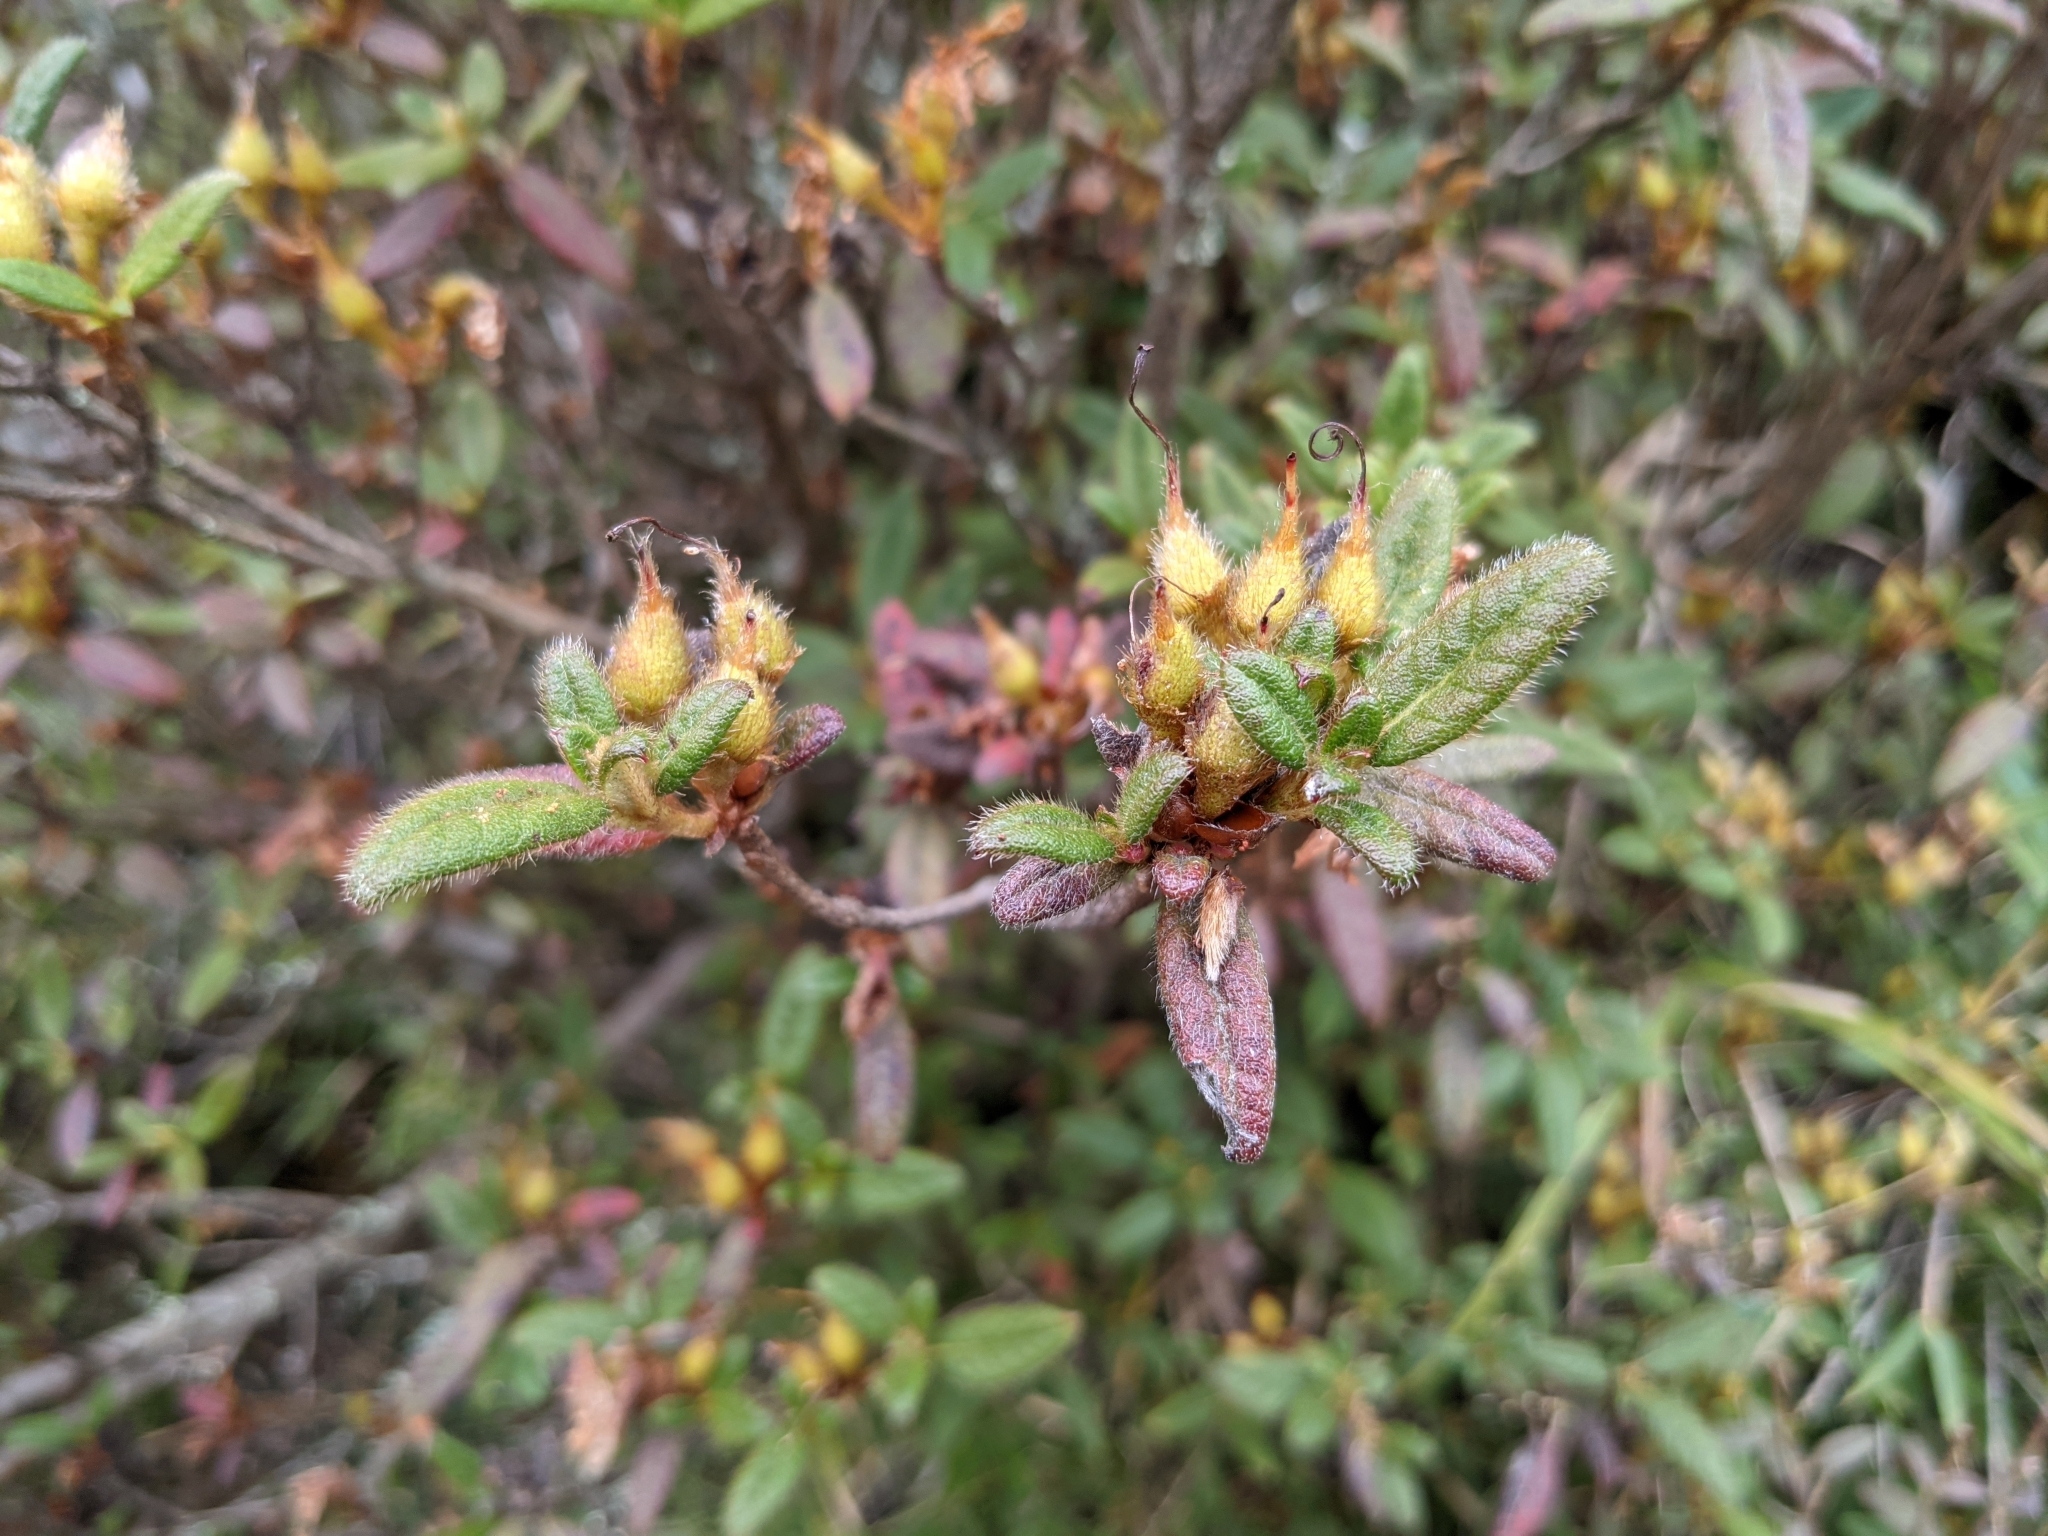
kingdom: Plantae
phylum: Tracheophyta
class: Magnoliopsida
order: Ericales
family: Ericaceae
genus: Rhododendron
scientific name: Rhododendron taiwanalpinum
